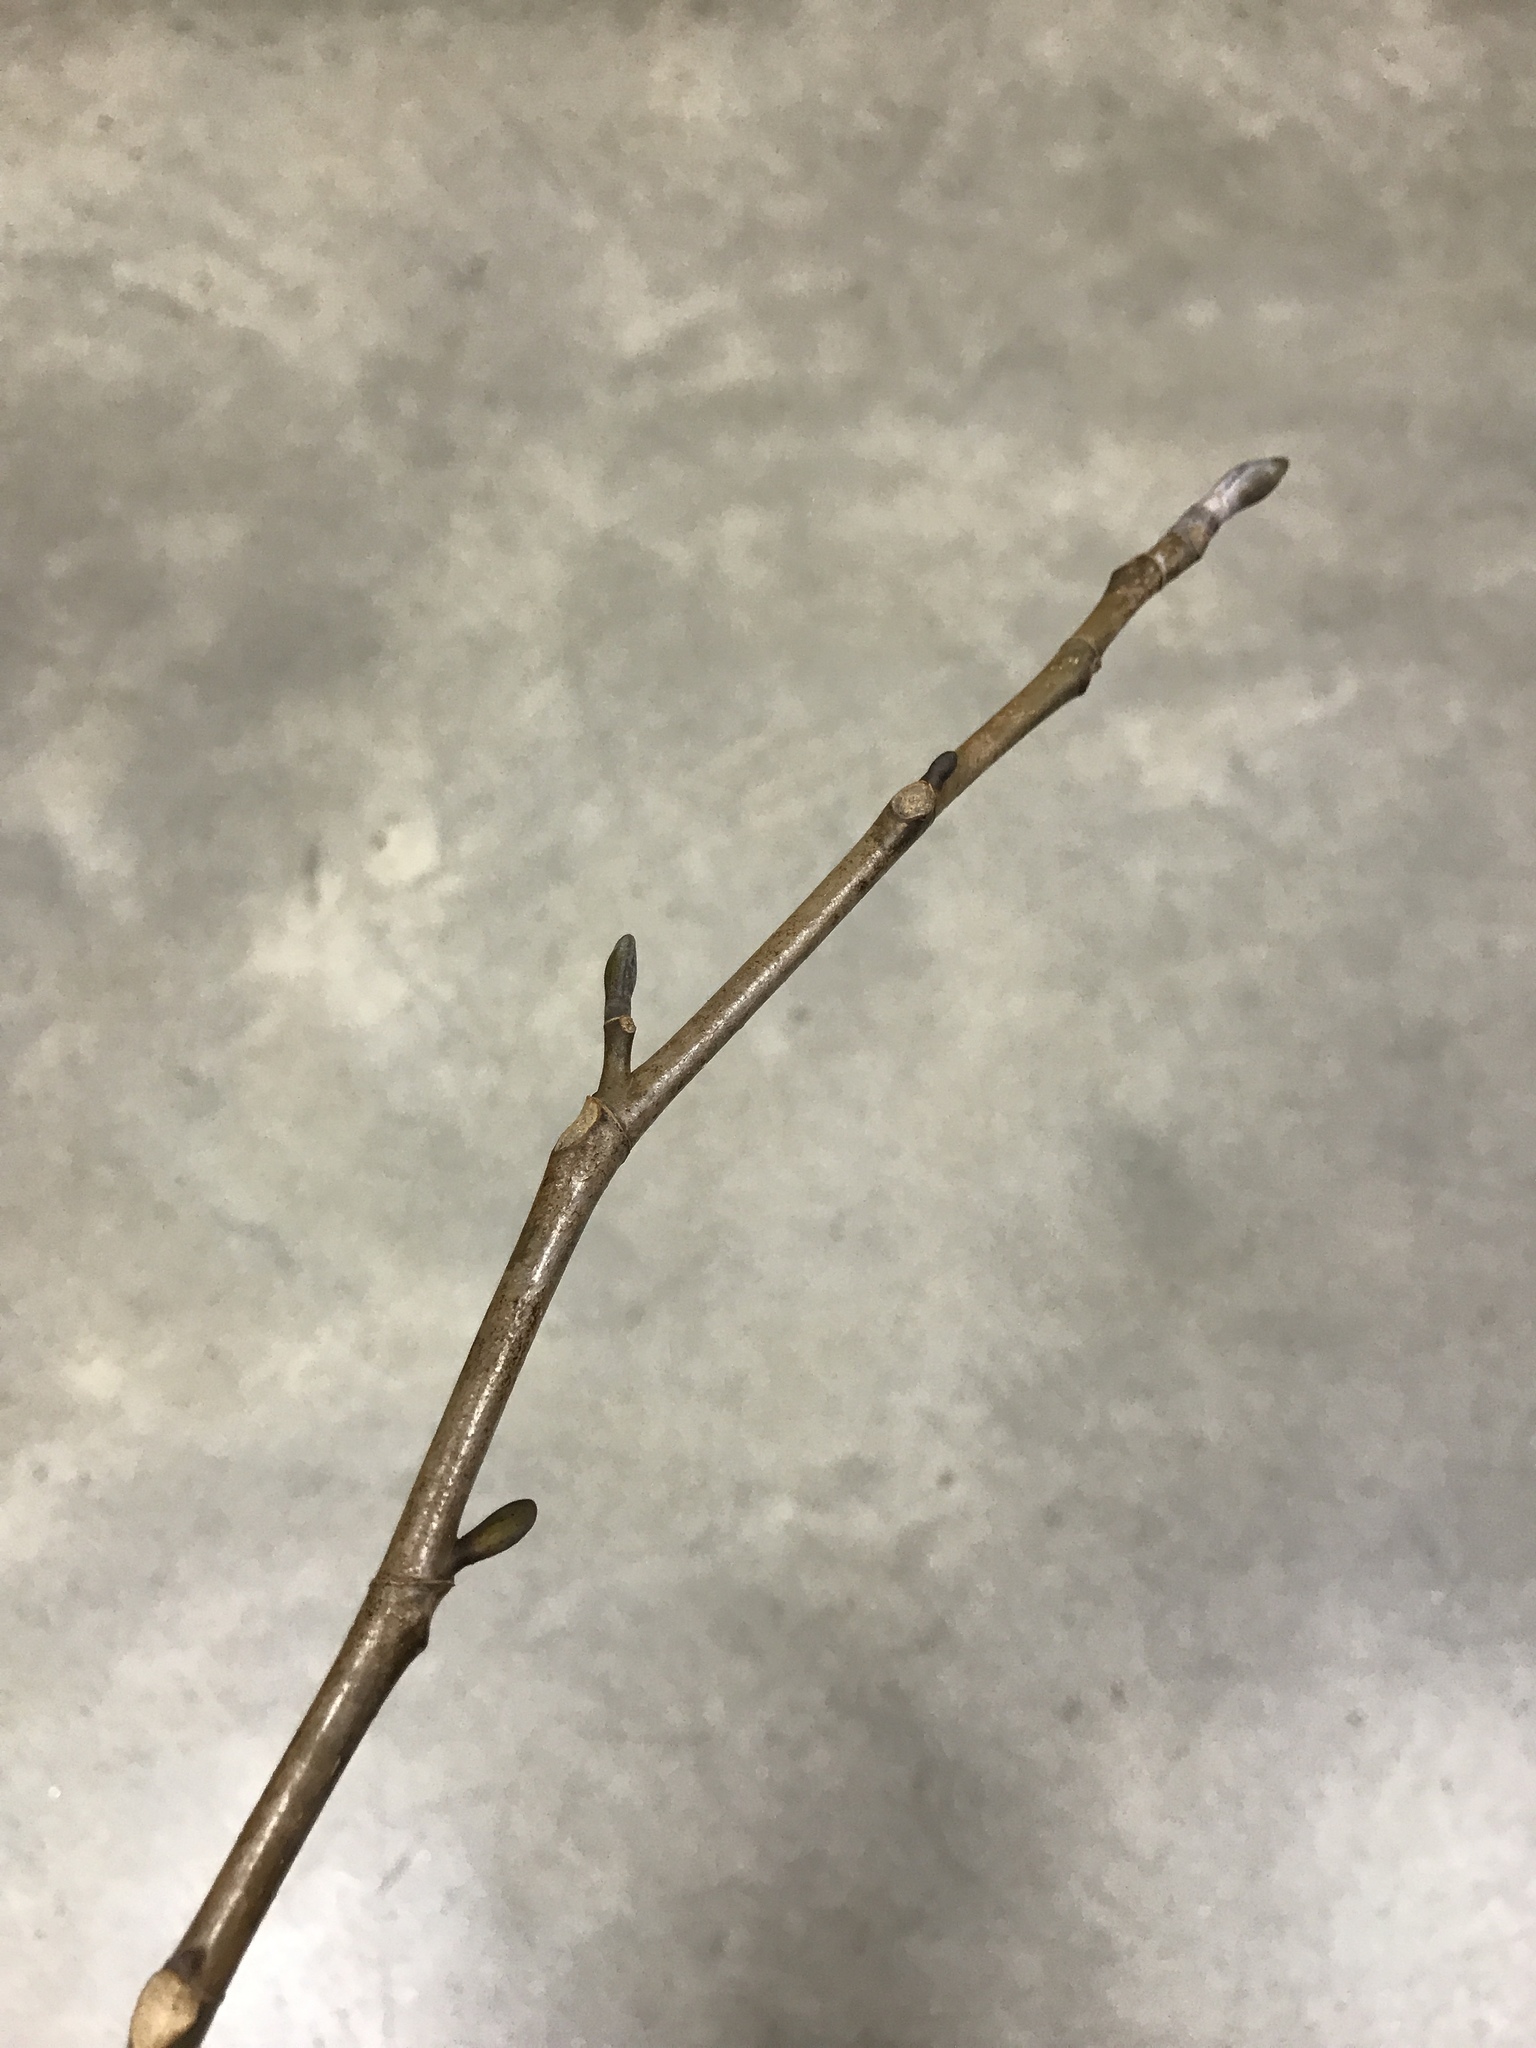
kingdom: Plantae
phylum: Tracheophyta
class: Magnoliopsida
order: Magnoliales
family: Magnoliaceae
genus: Liriodendron
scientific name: Liriodendron tulipifera
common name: Tulip tree
